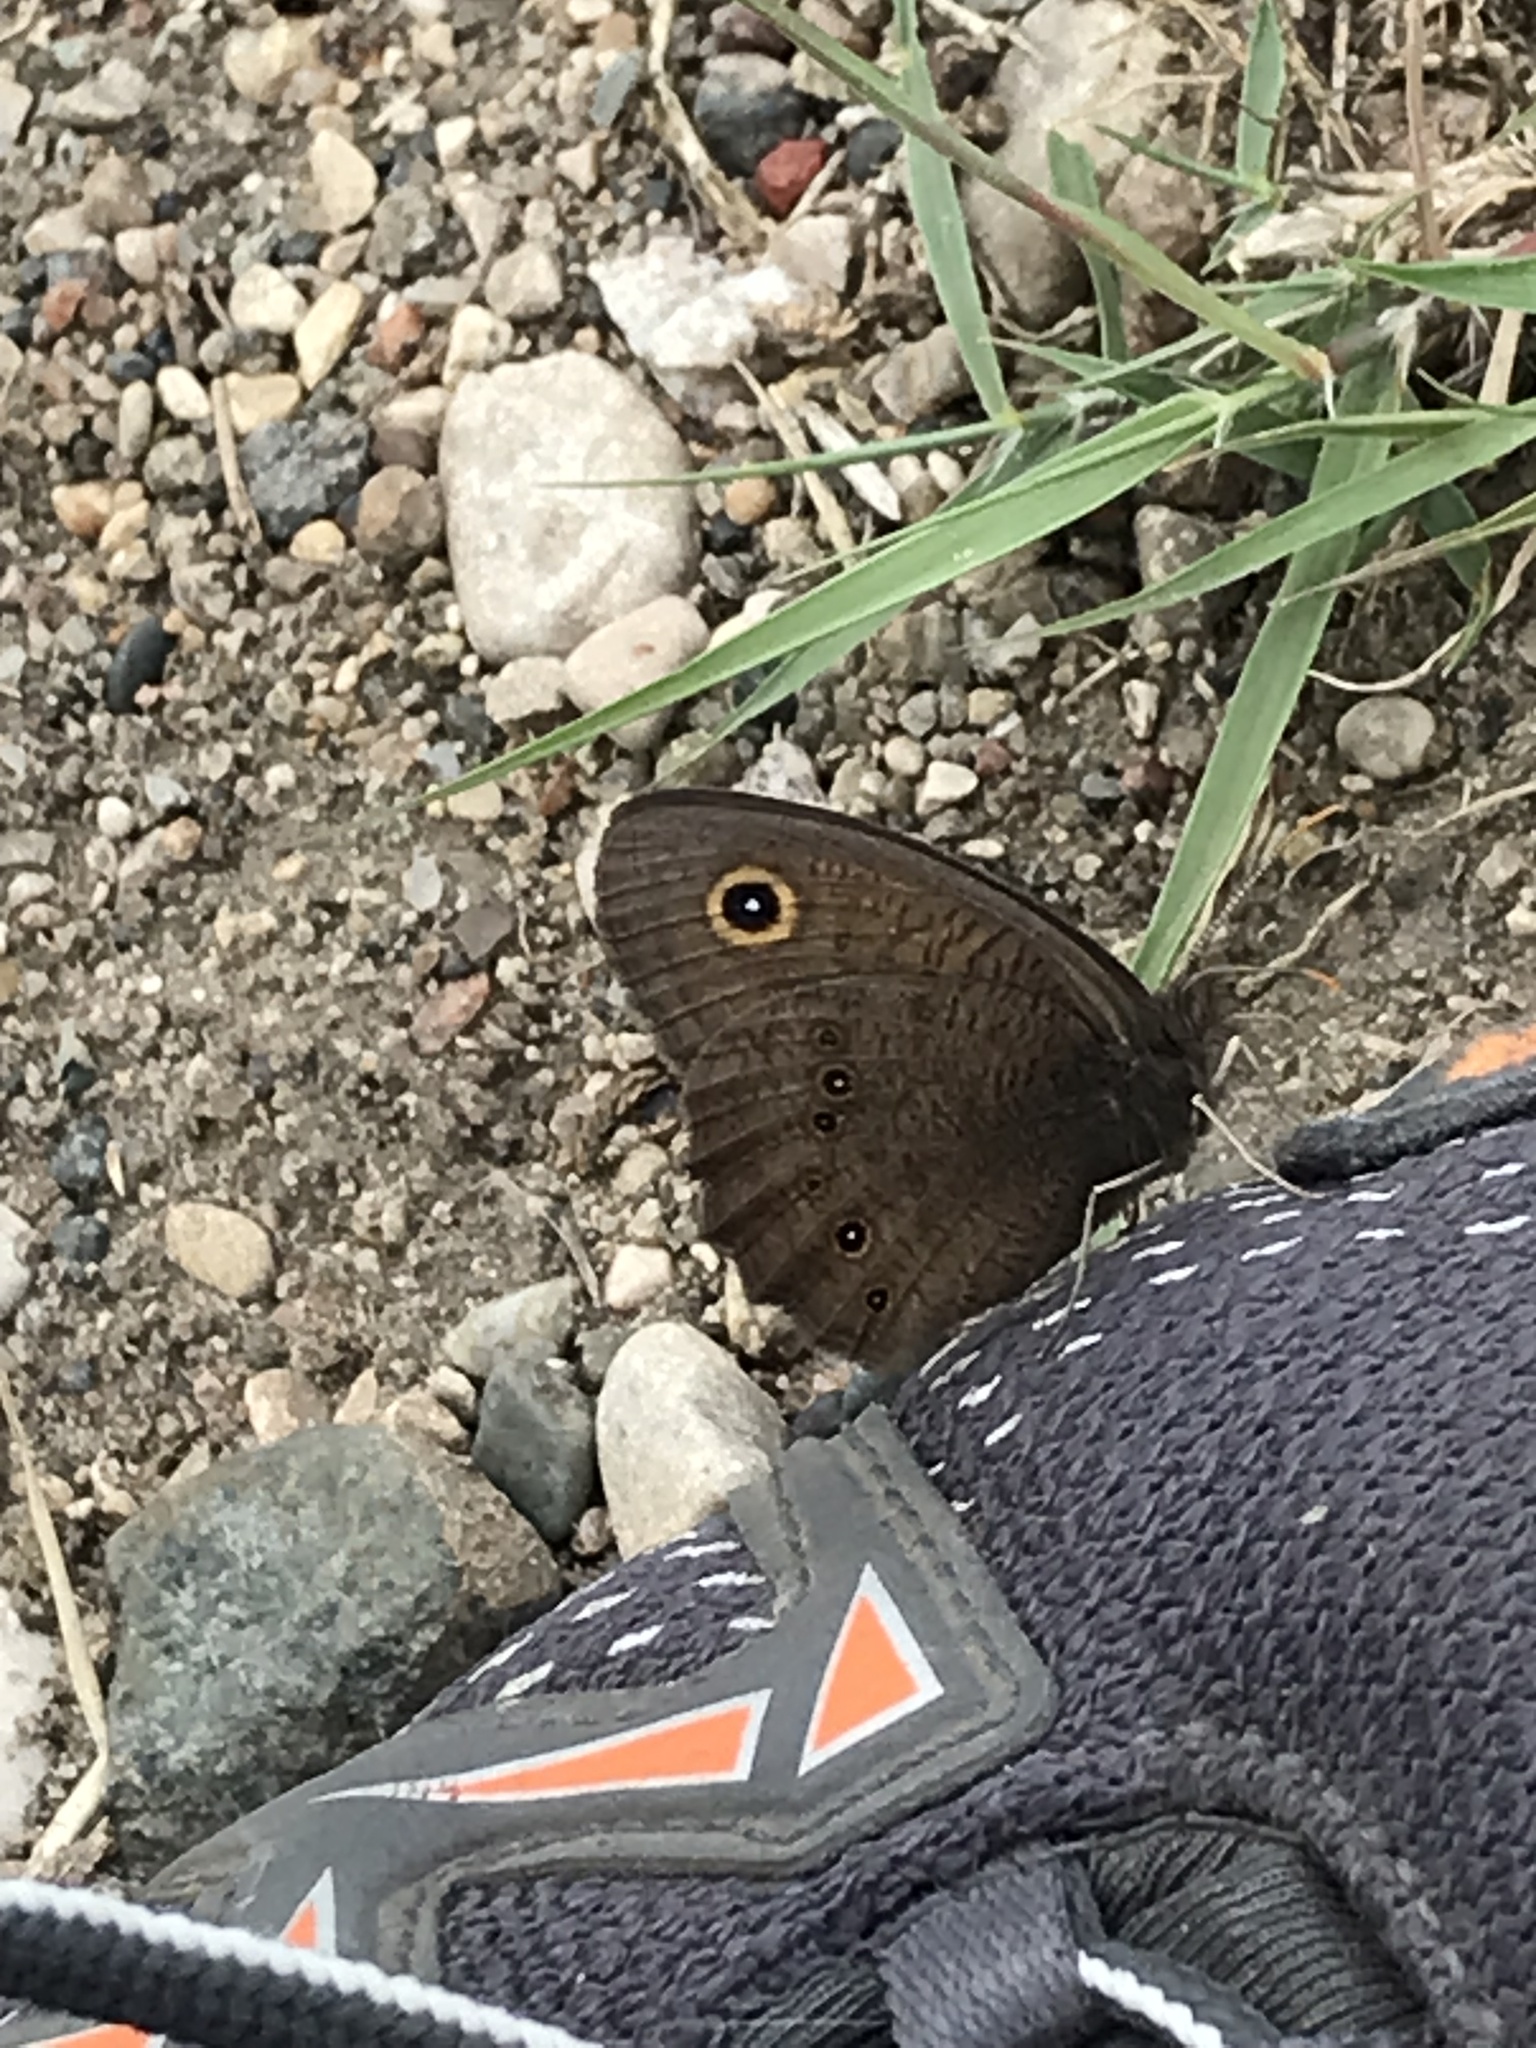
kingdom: Animalia
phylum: Arthropoda
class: Insecta
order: Lepidoptera
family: Nymphalidae
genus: Cercyonis
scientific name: Cercyonis pegala
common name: Common wood-nymph
